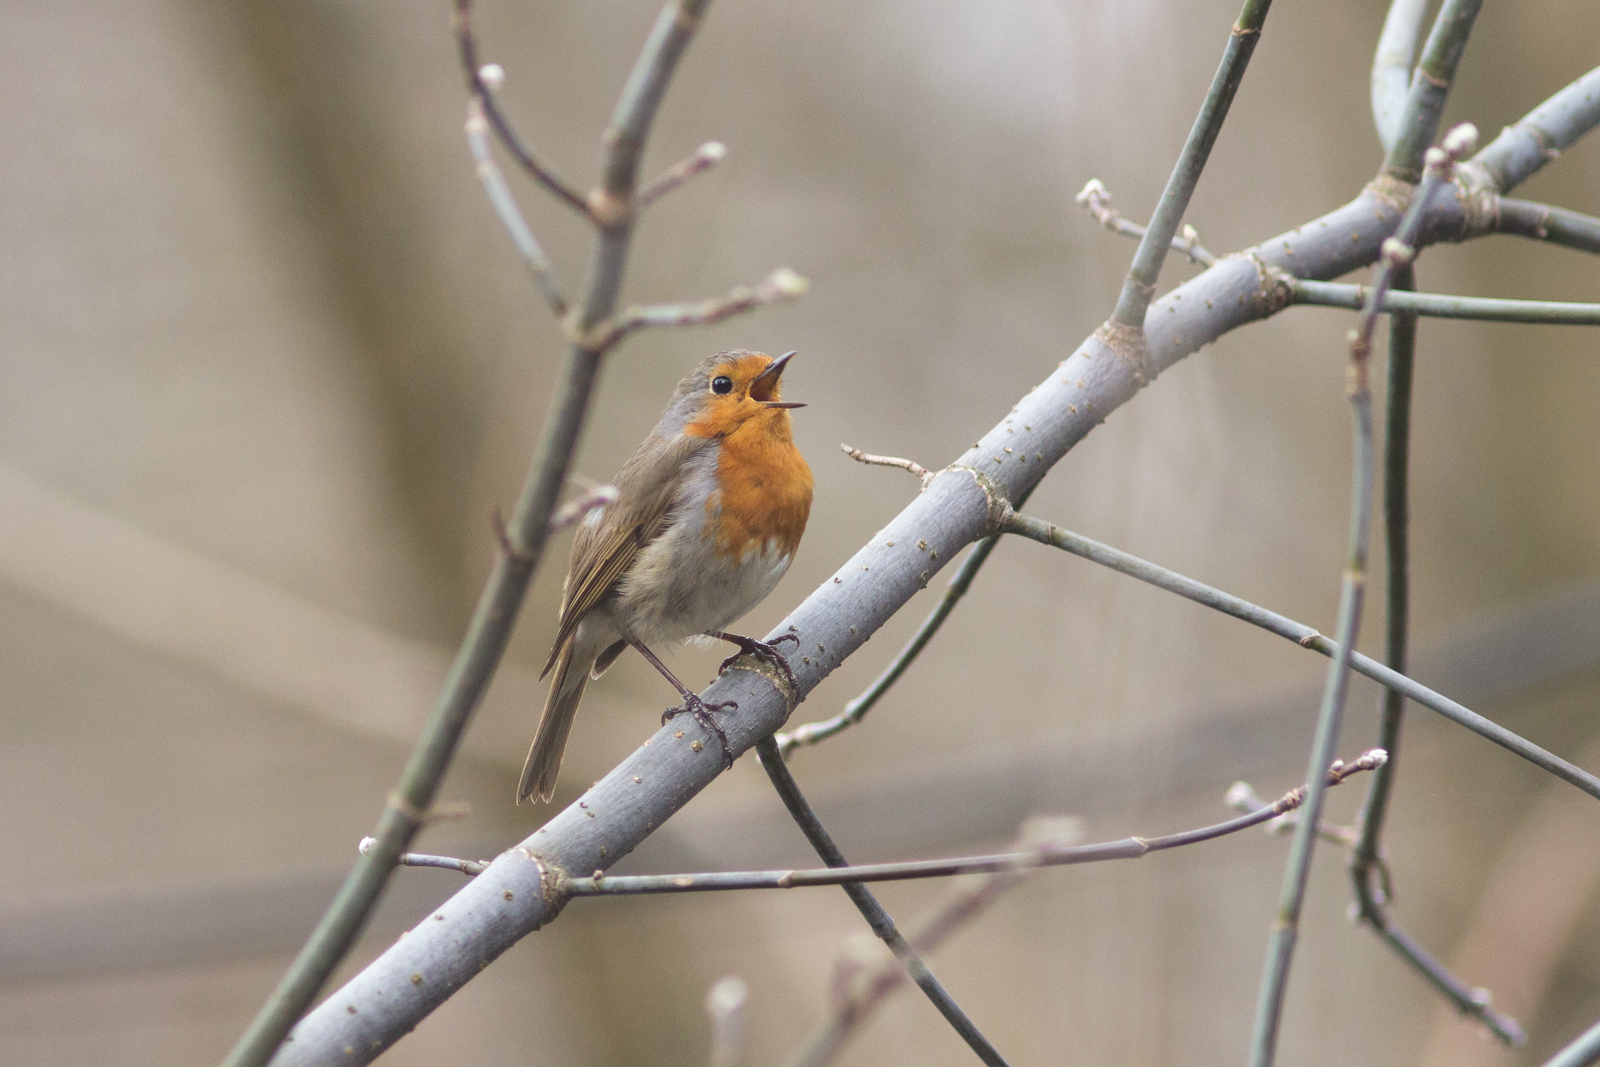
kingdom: Animalia
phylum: Chordata
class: Aves
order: Passeriformes
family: Muscicapidae
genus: Erithacus
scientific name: Erithacus rubecula
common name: European robin
